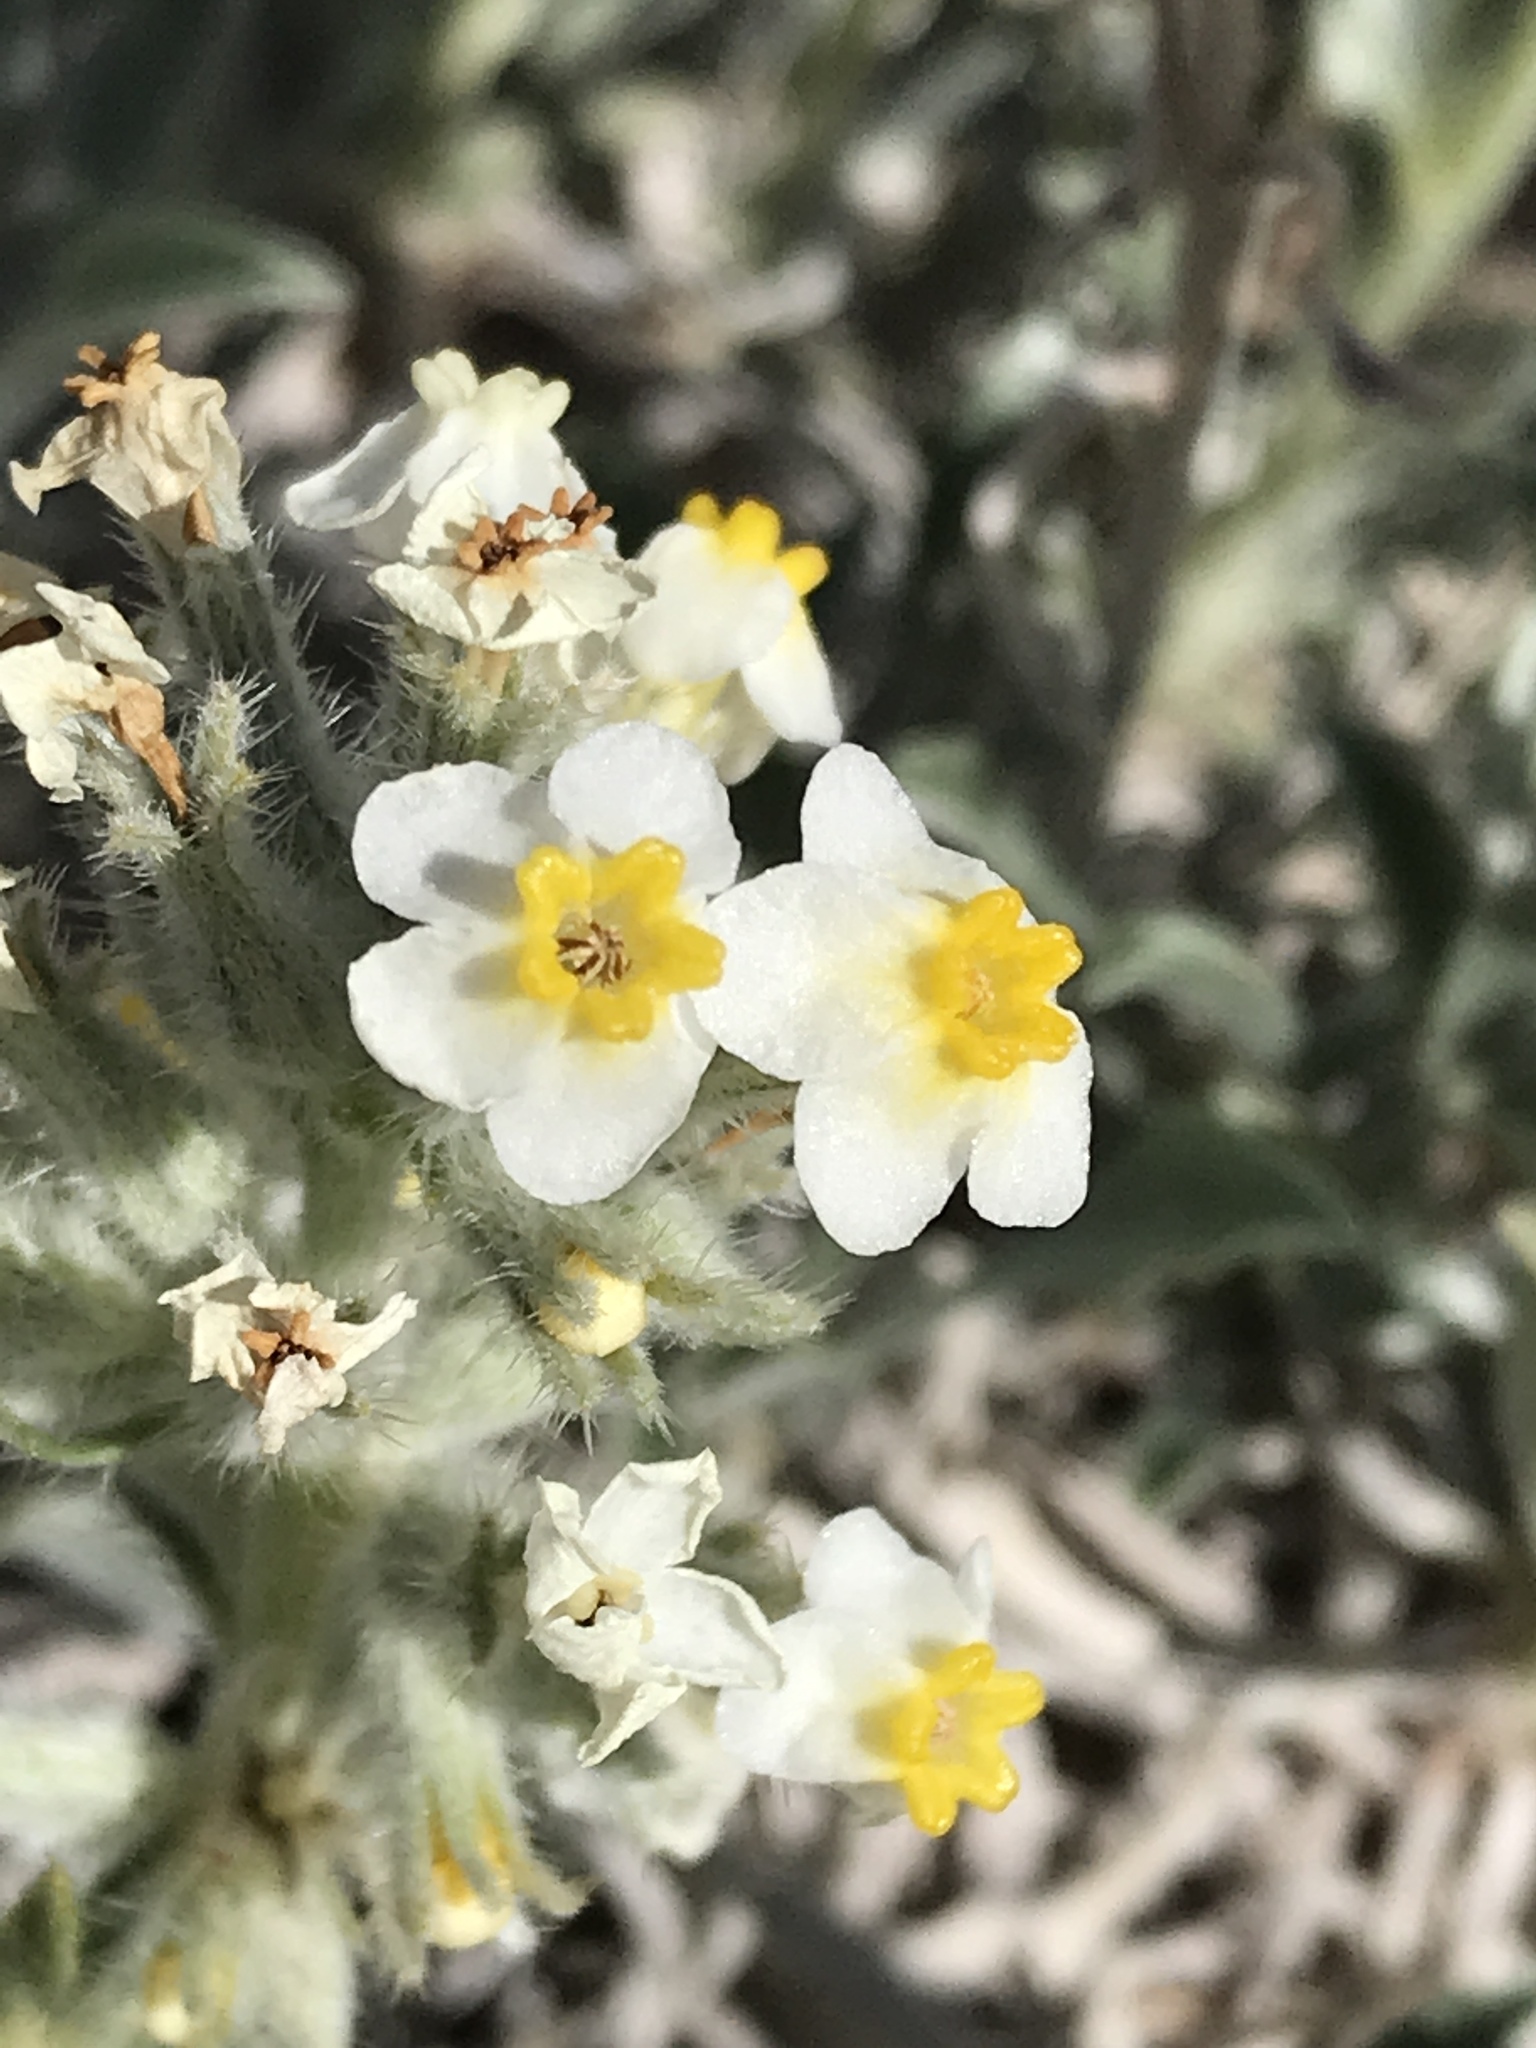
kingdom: Plantae
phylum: Tracheophyta
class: Magnoliopsida
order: Boraginales
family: Boraginaceae
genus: Oreocarya
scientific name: Oreocarya flavoculata
